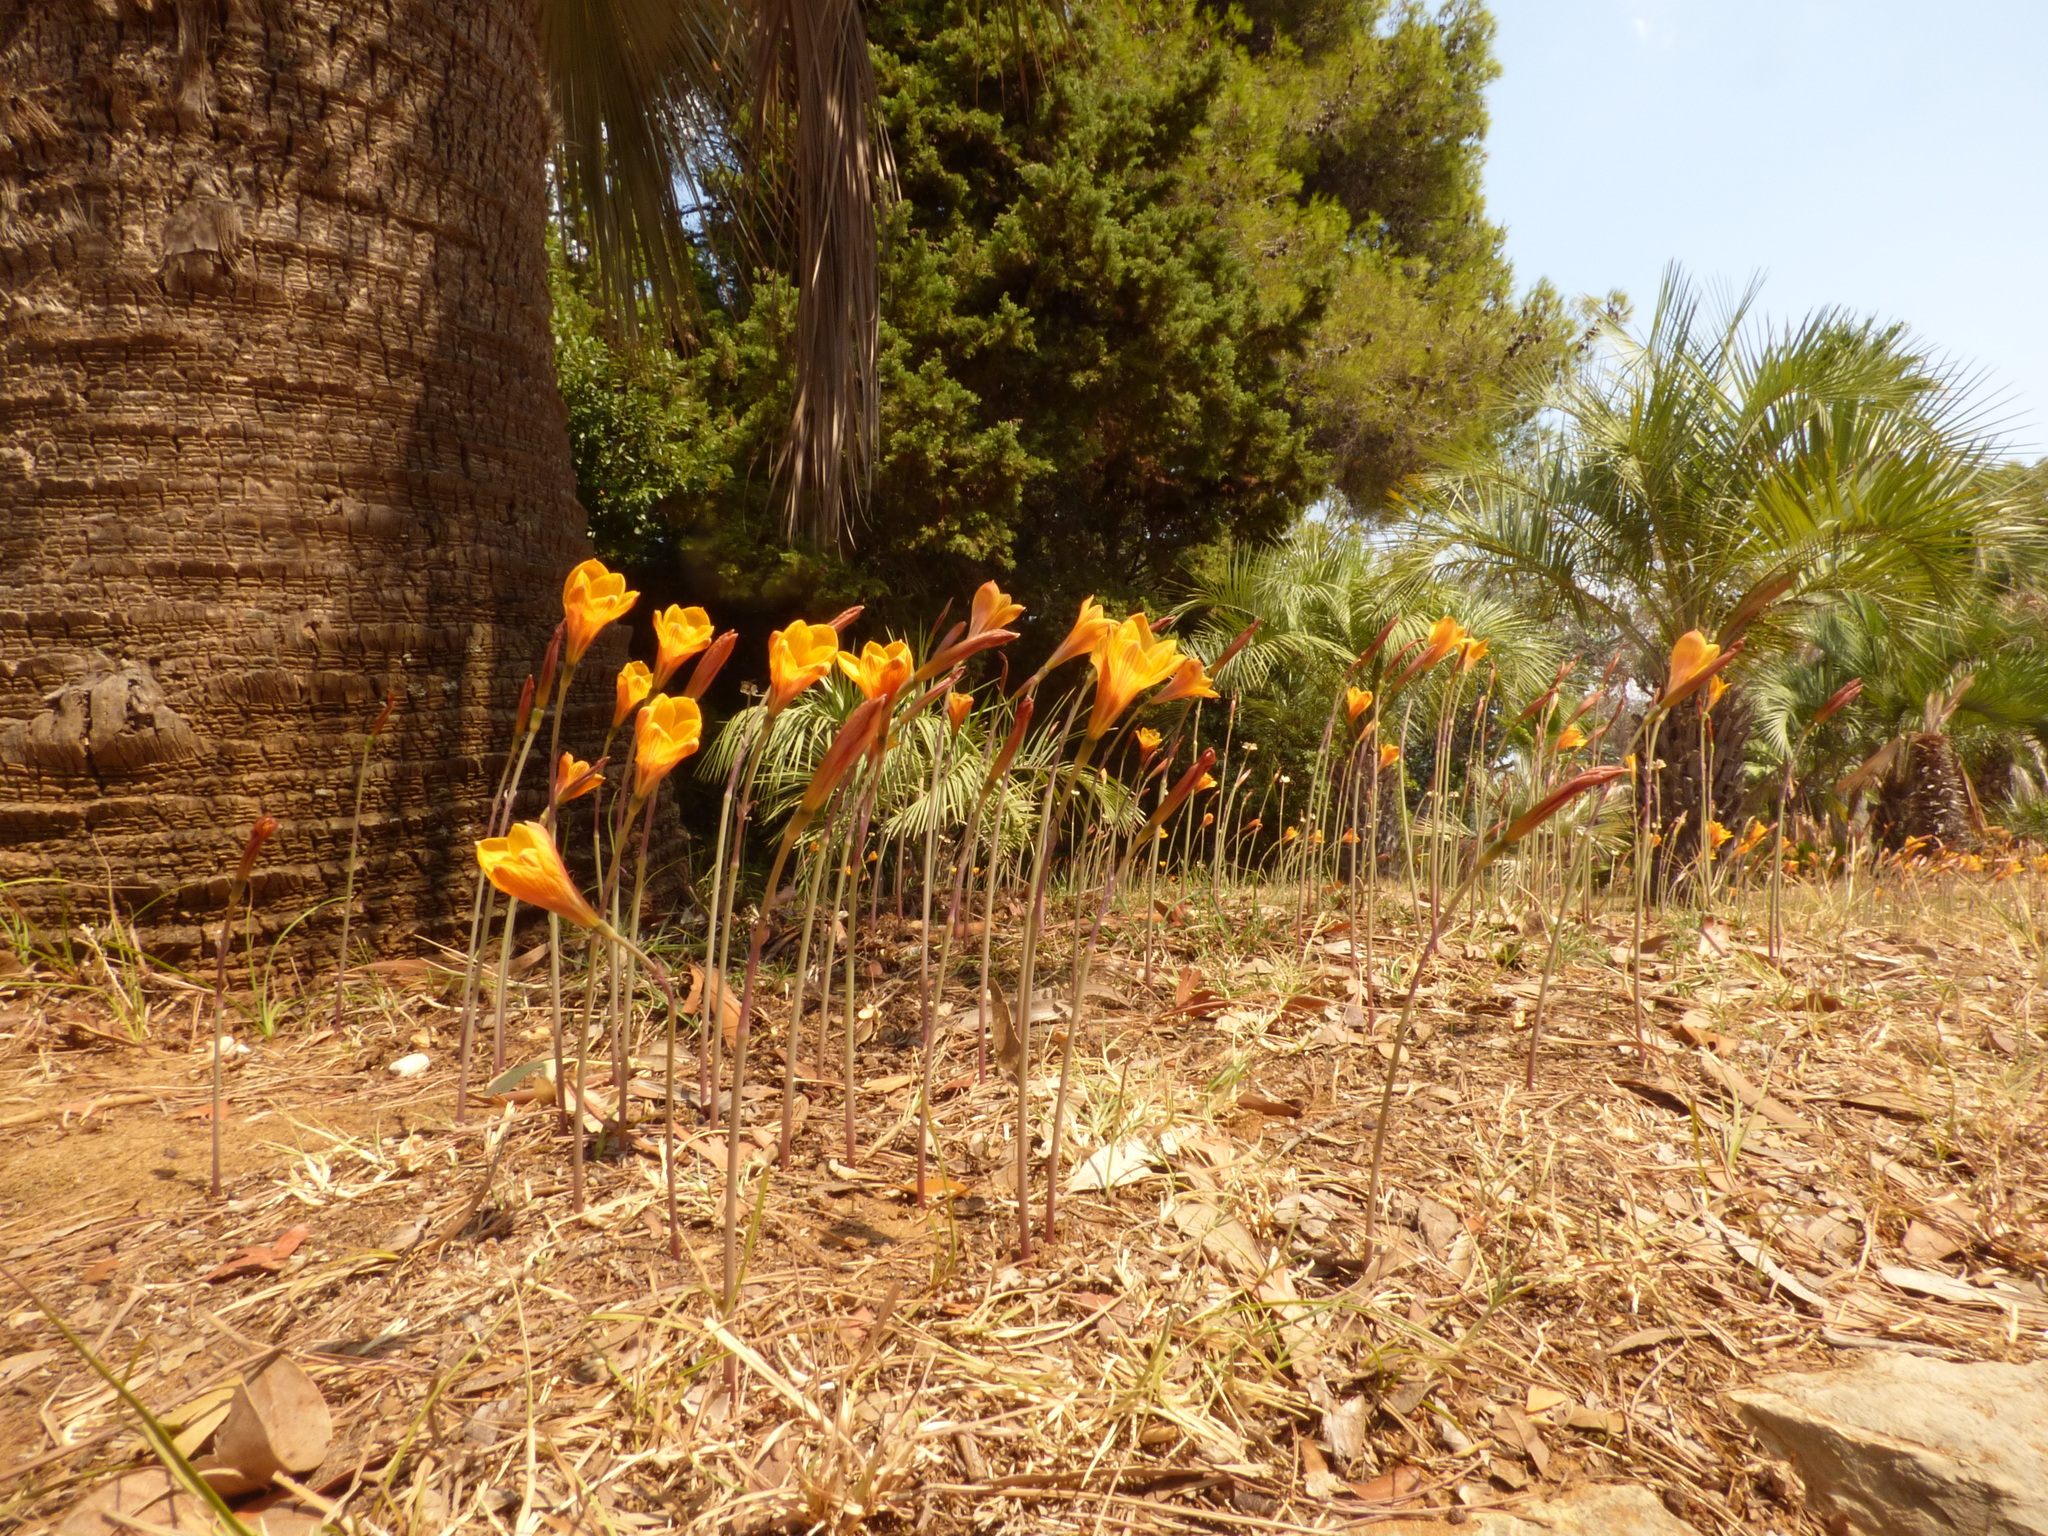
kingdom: Plantae
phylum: Tracheophyta
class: Liliopsida
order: Asparagales
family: Amaryllidaceae
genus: Zephyranthes
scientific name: Zephyranthes tubispatha
